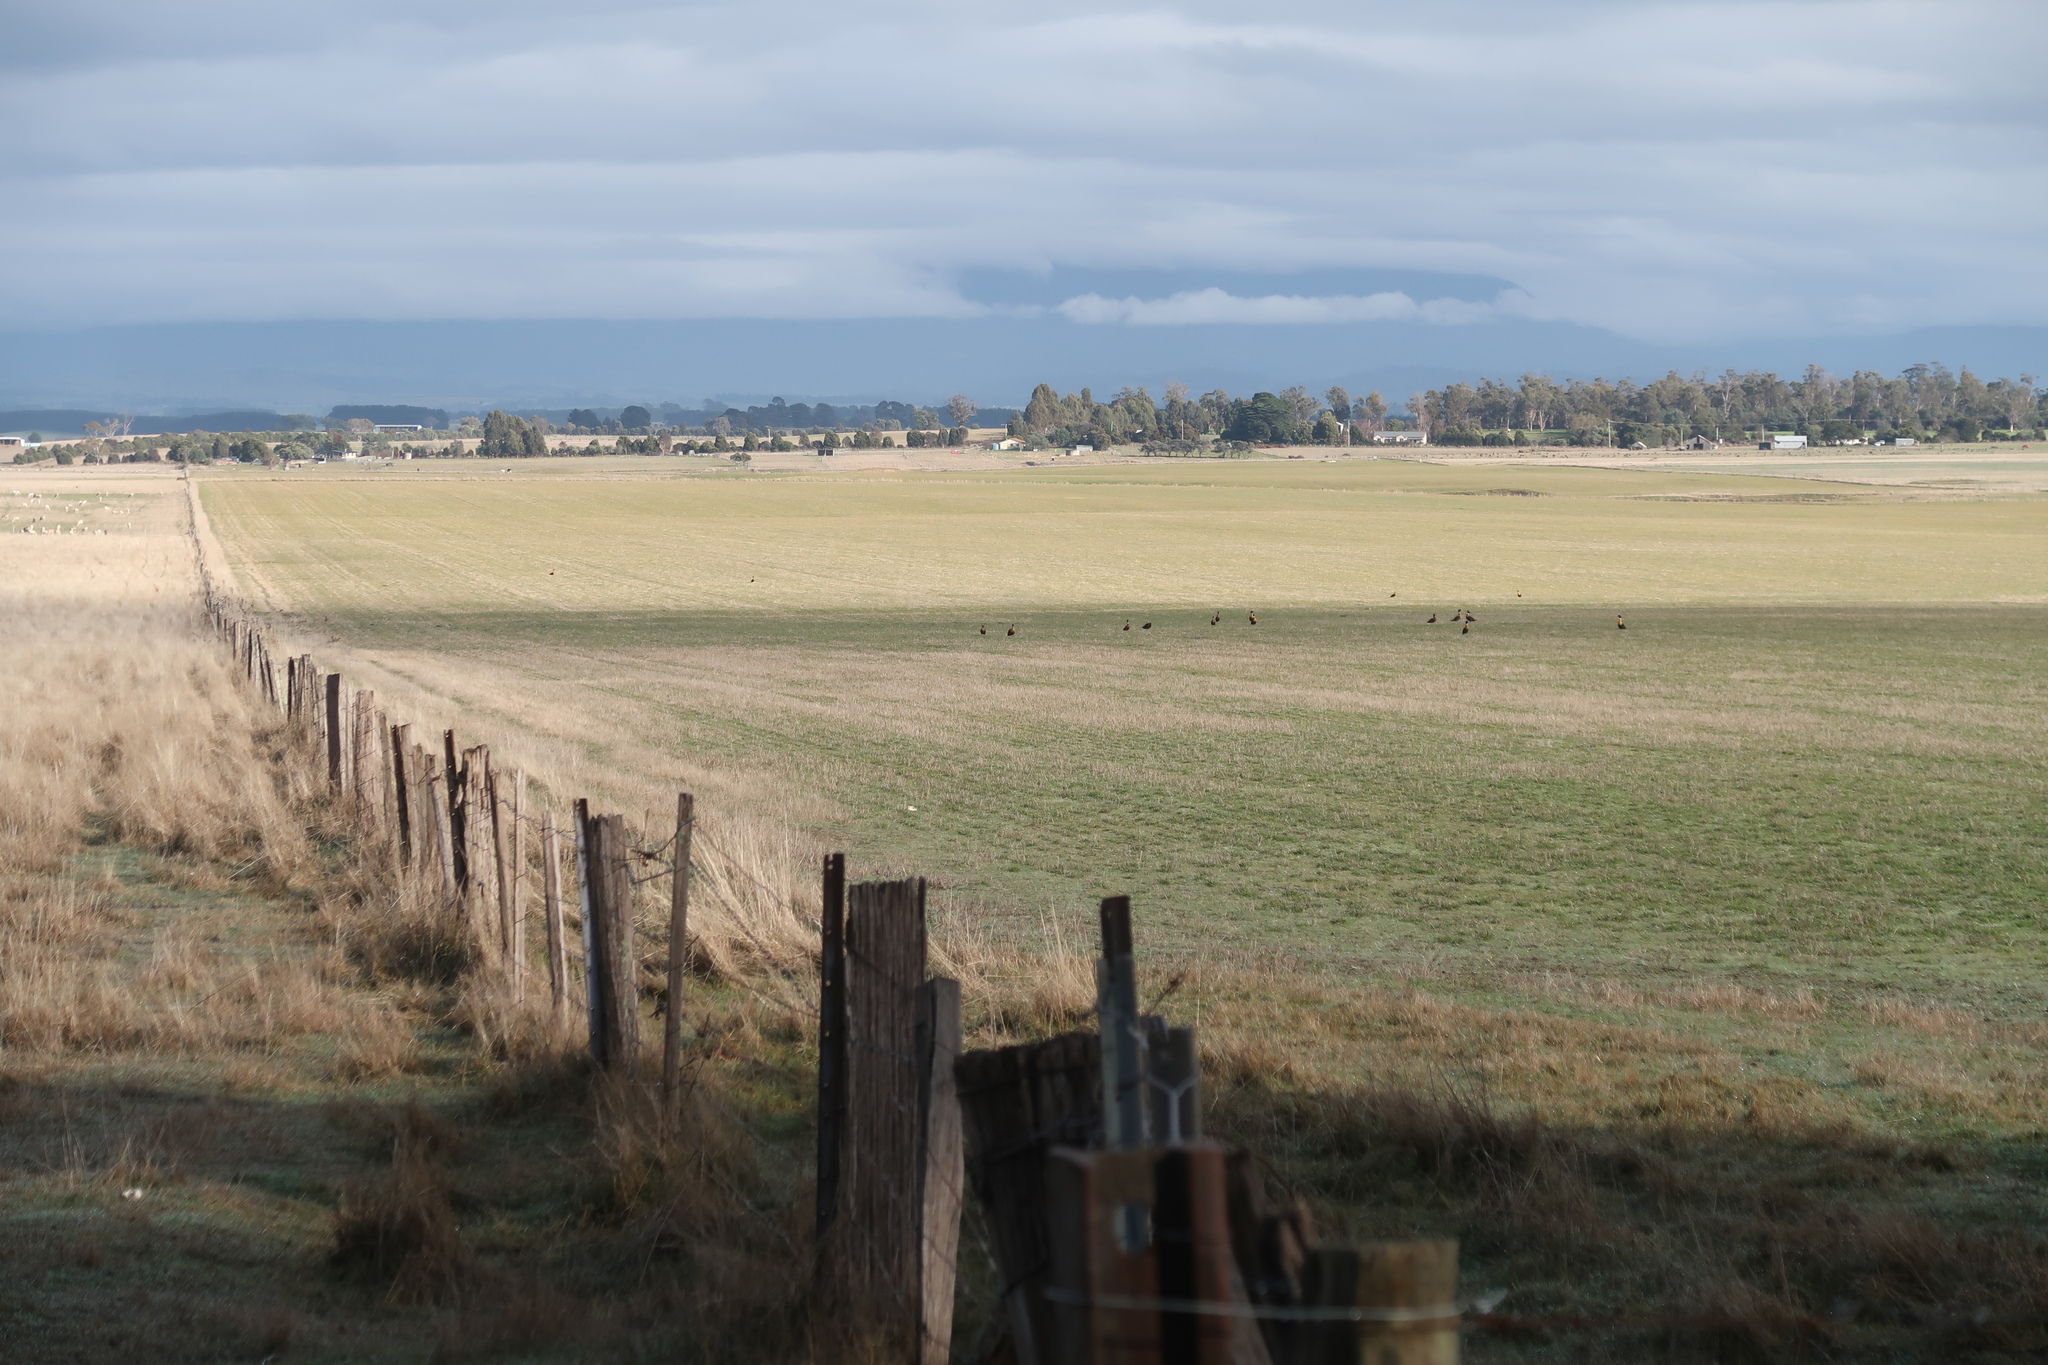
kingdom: Animalia
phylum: Chordata
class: Aves
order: Anseriformes
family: Anatidae
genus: Tadorna
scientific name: Tadorna tadornoides
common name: Australian shelduck
